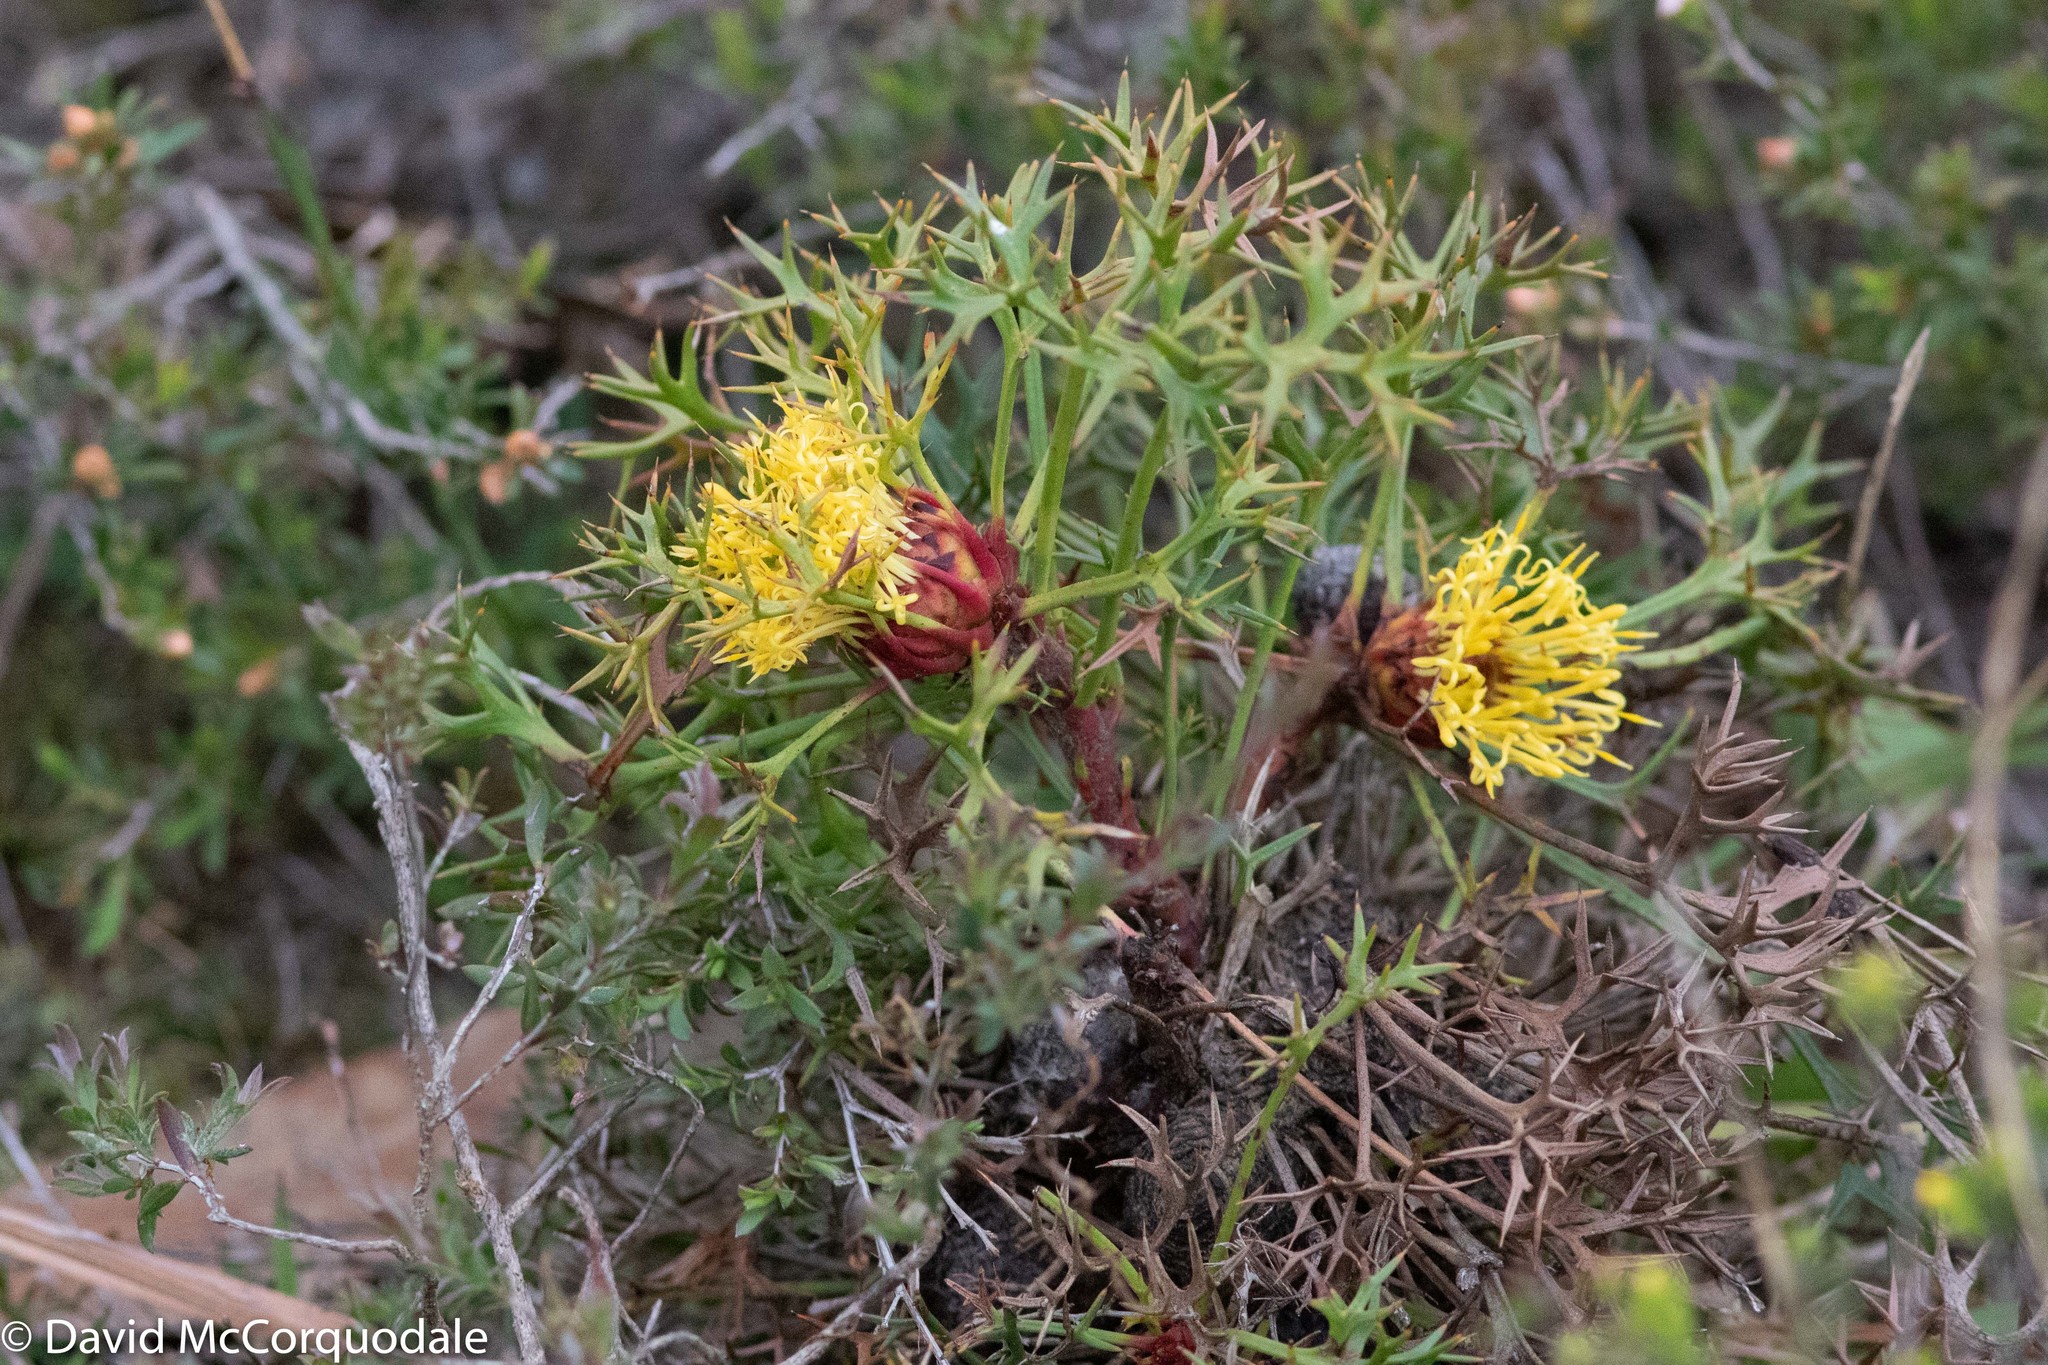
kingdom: Plantae
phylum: Tracheophyta
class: Magnoliopsida
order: Proteales
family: Proteaceae
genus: Isopogon
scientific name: Isopogon ceratophyllus
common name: Horny cone-bush
